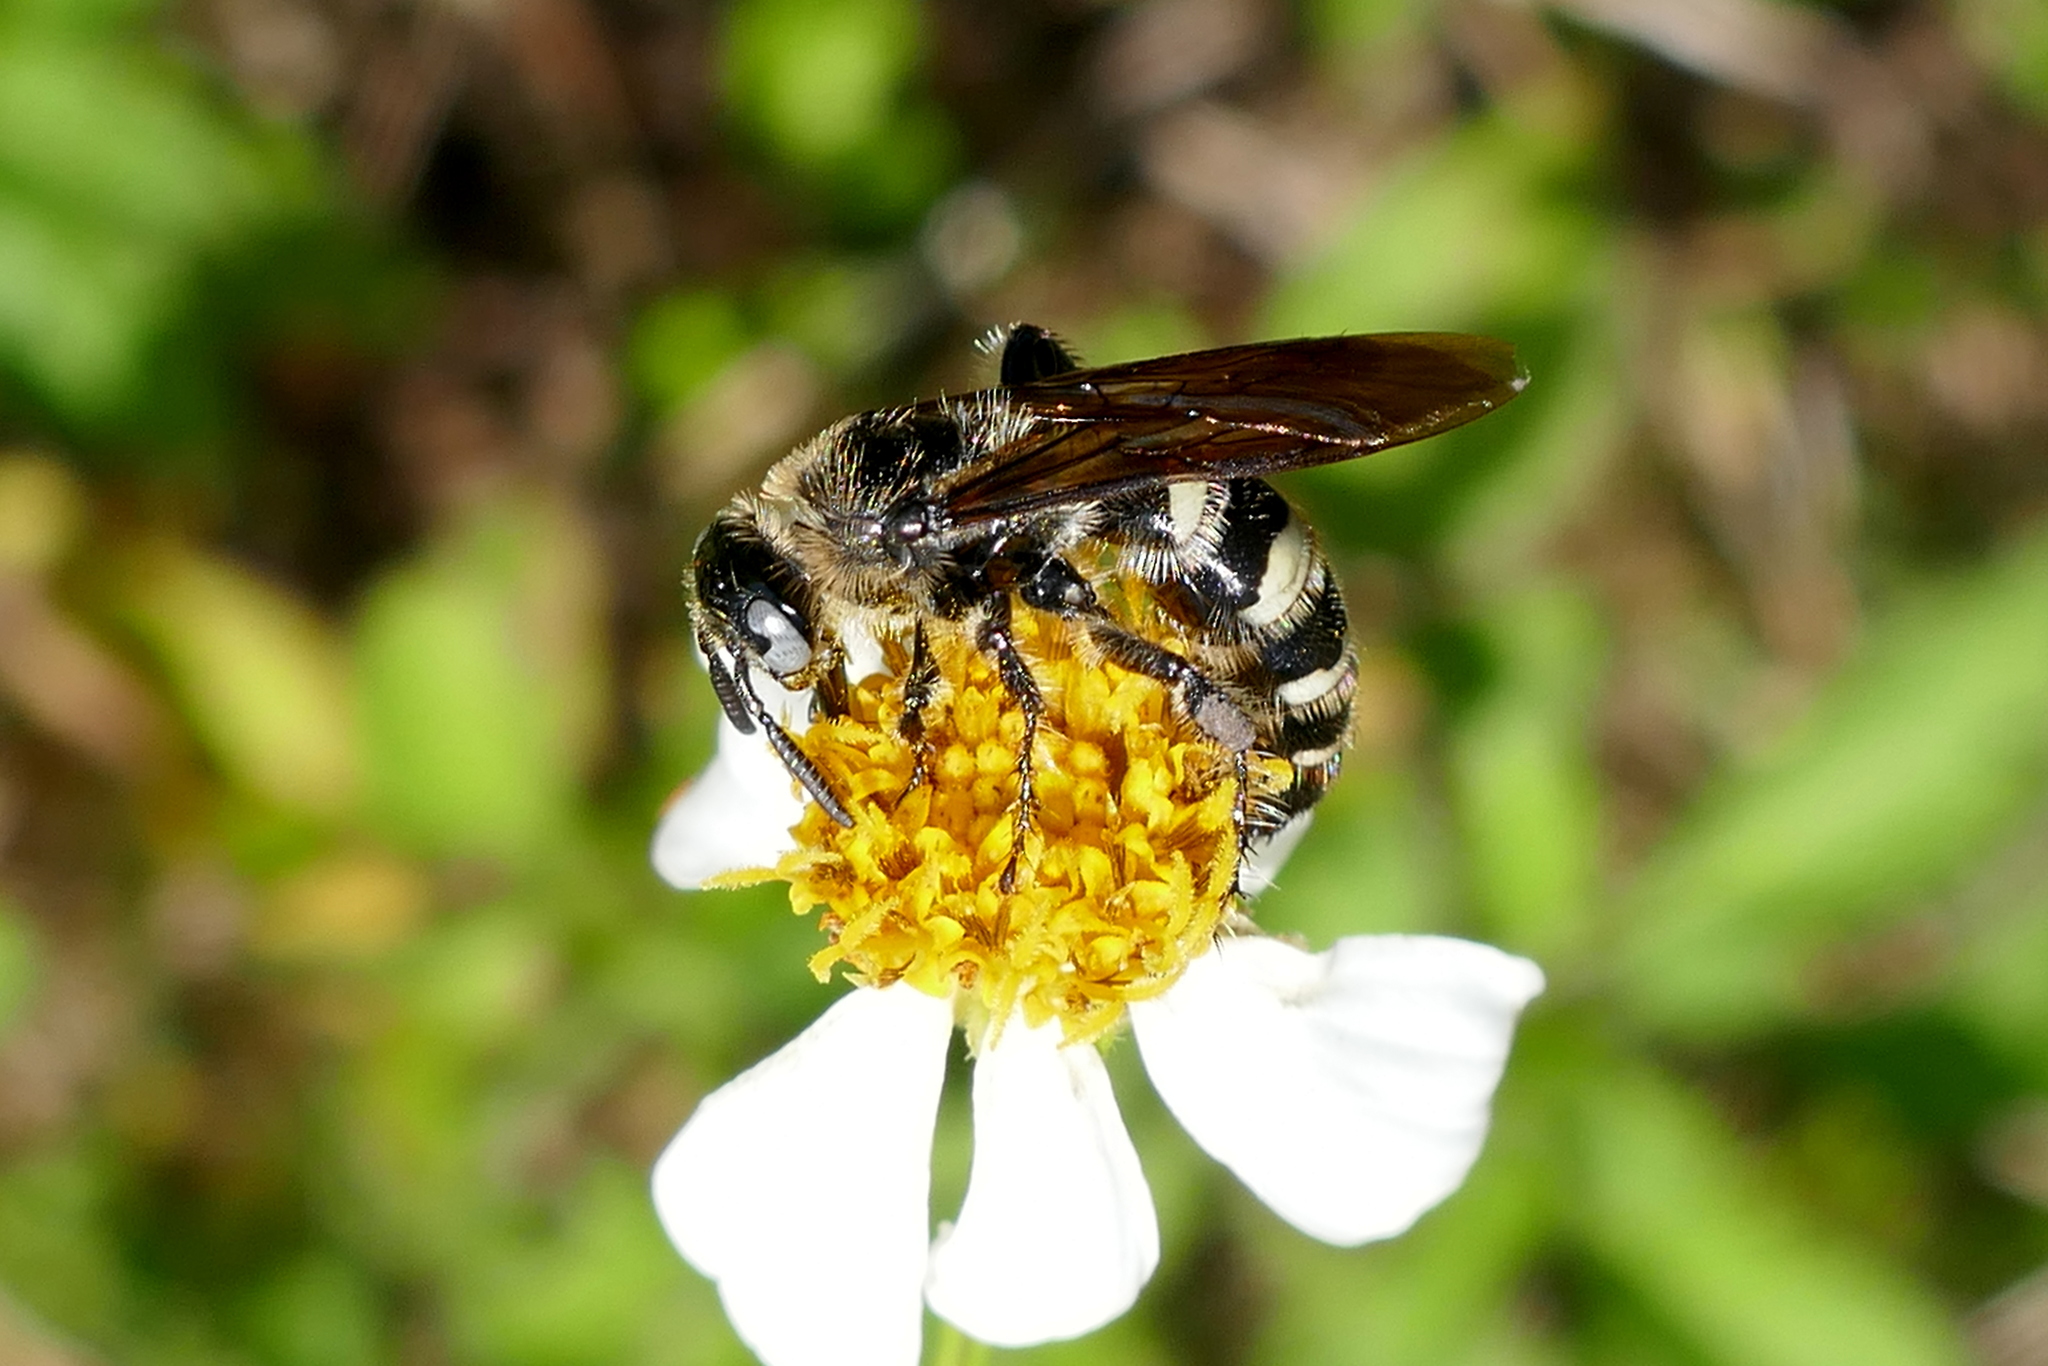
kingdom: Animalia
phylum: Arthropoda
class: Insecta
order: Hymenoptera
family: Scoliidae
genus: Dielis
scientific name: Dielis
